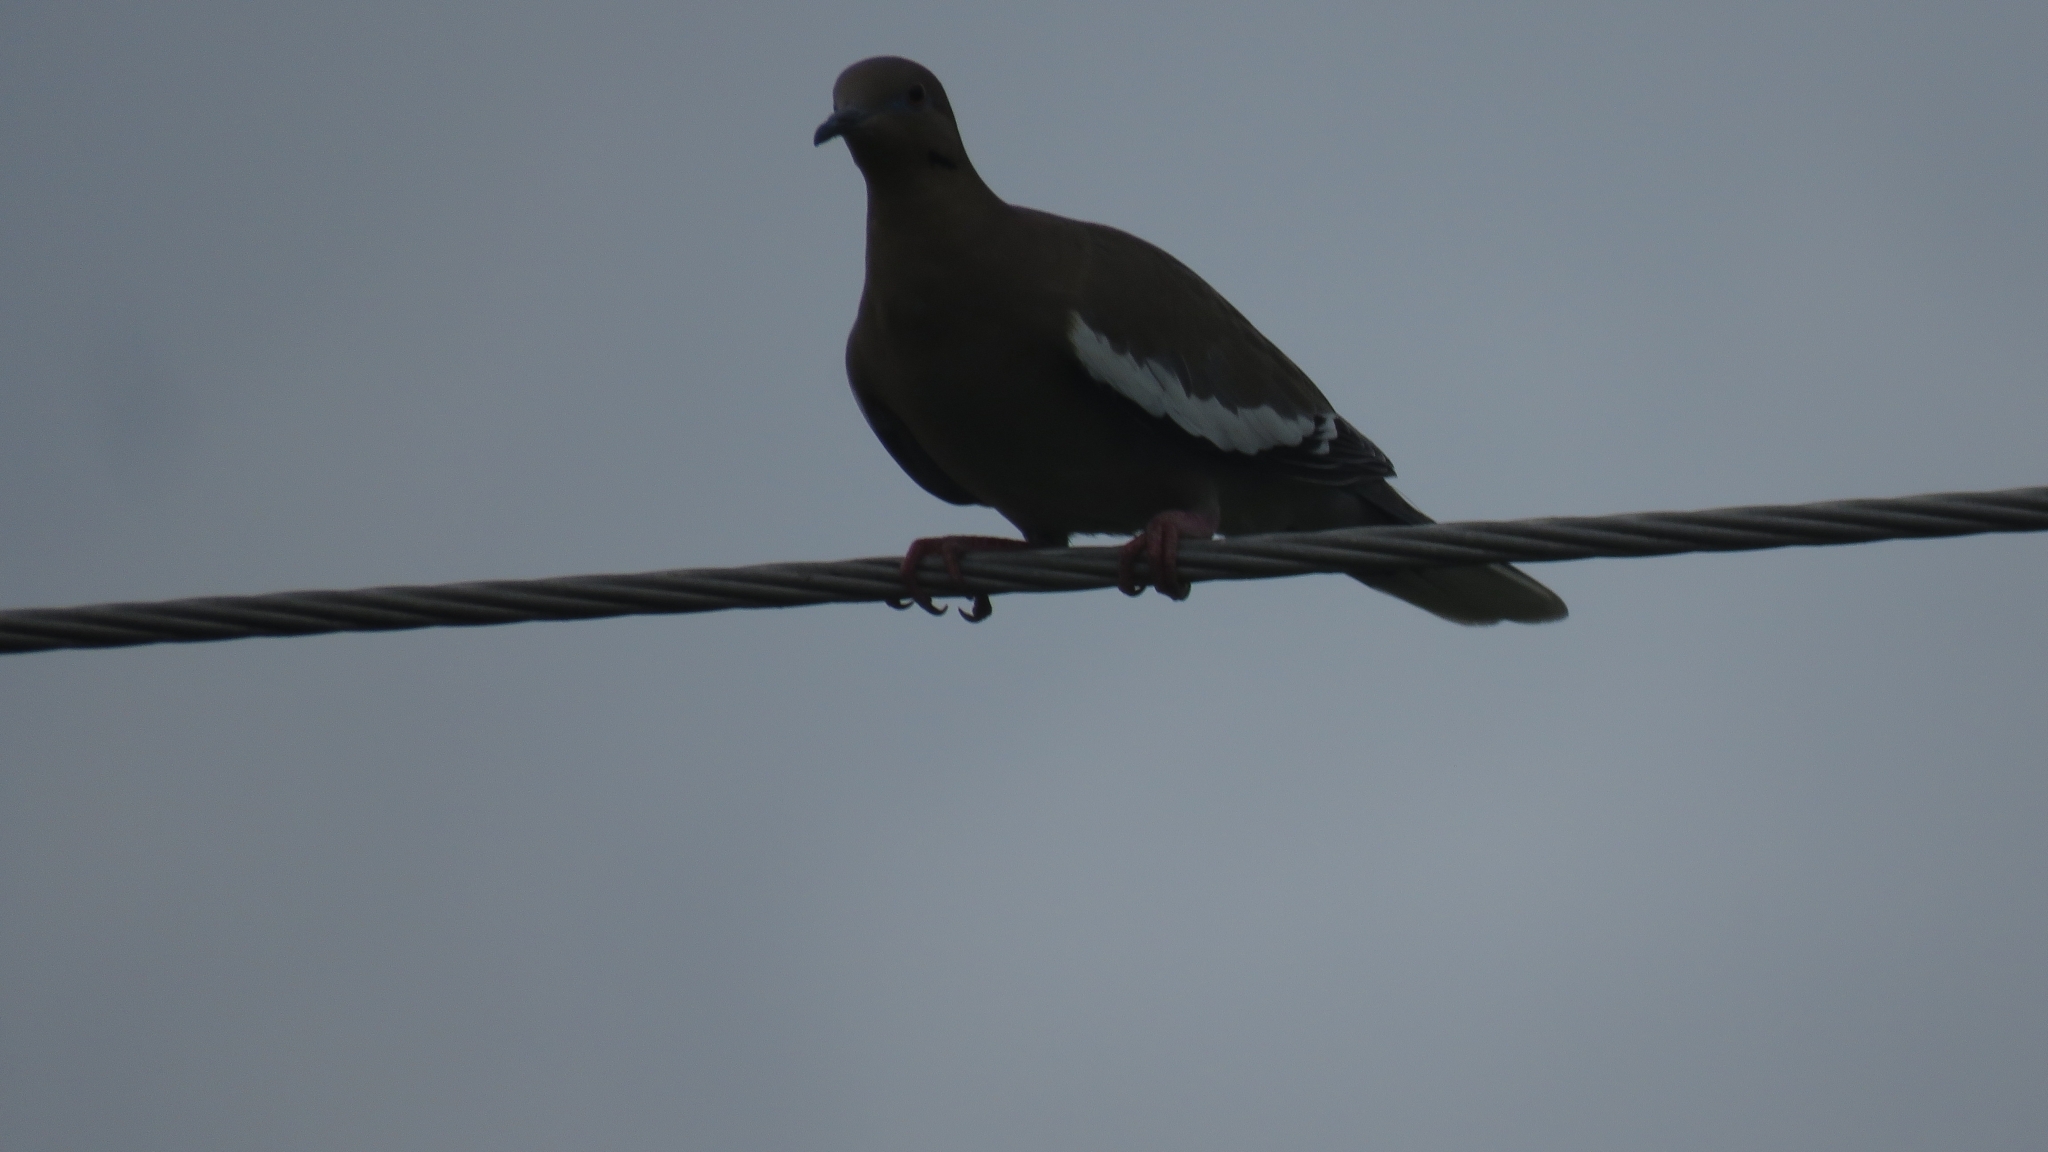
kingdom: Animalia
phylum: Chordata
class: Aves
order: Columbiformes
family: Columbidae
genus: Zenaida
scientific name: Zenaida asiatica
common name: White-winged dove
